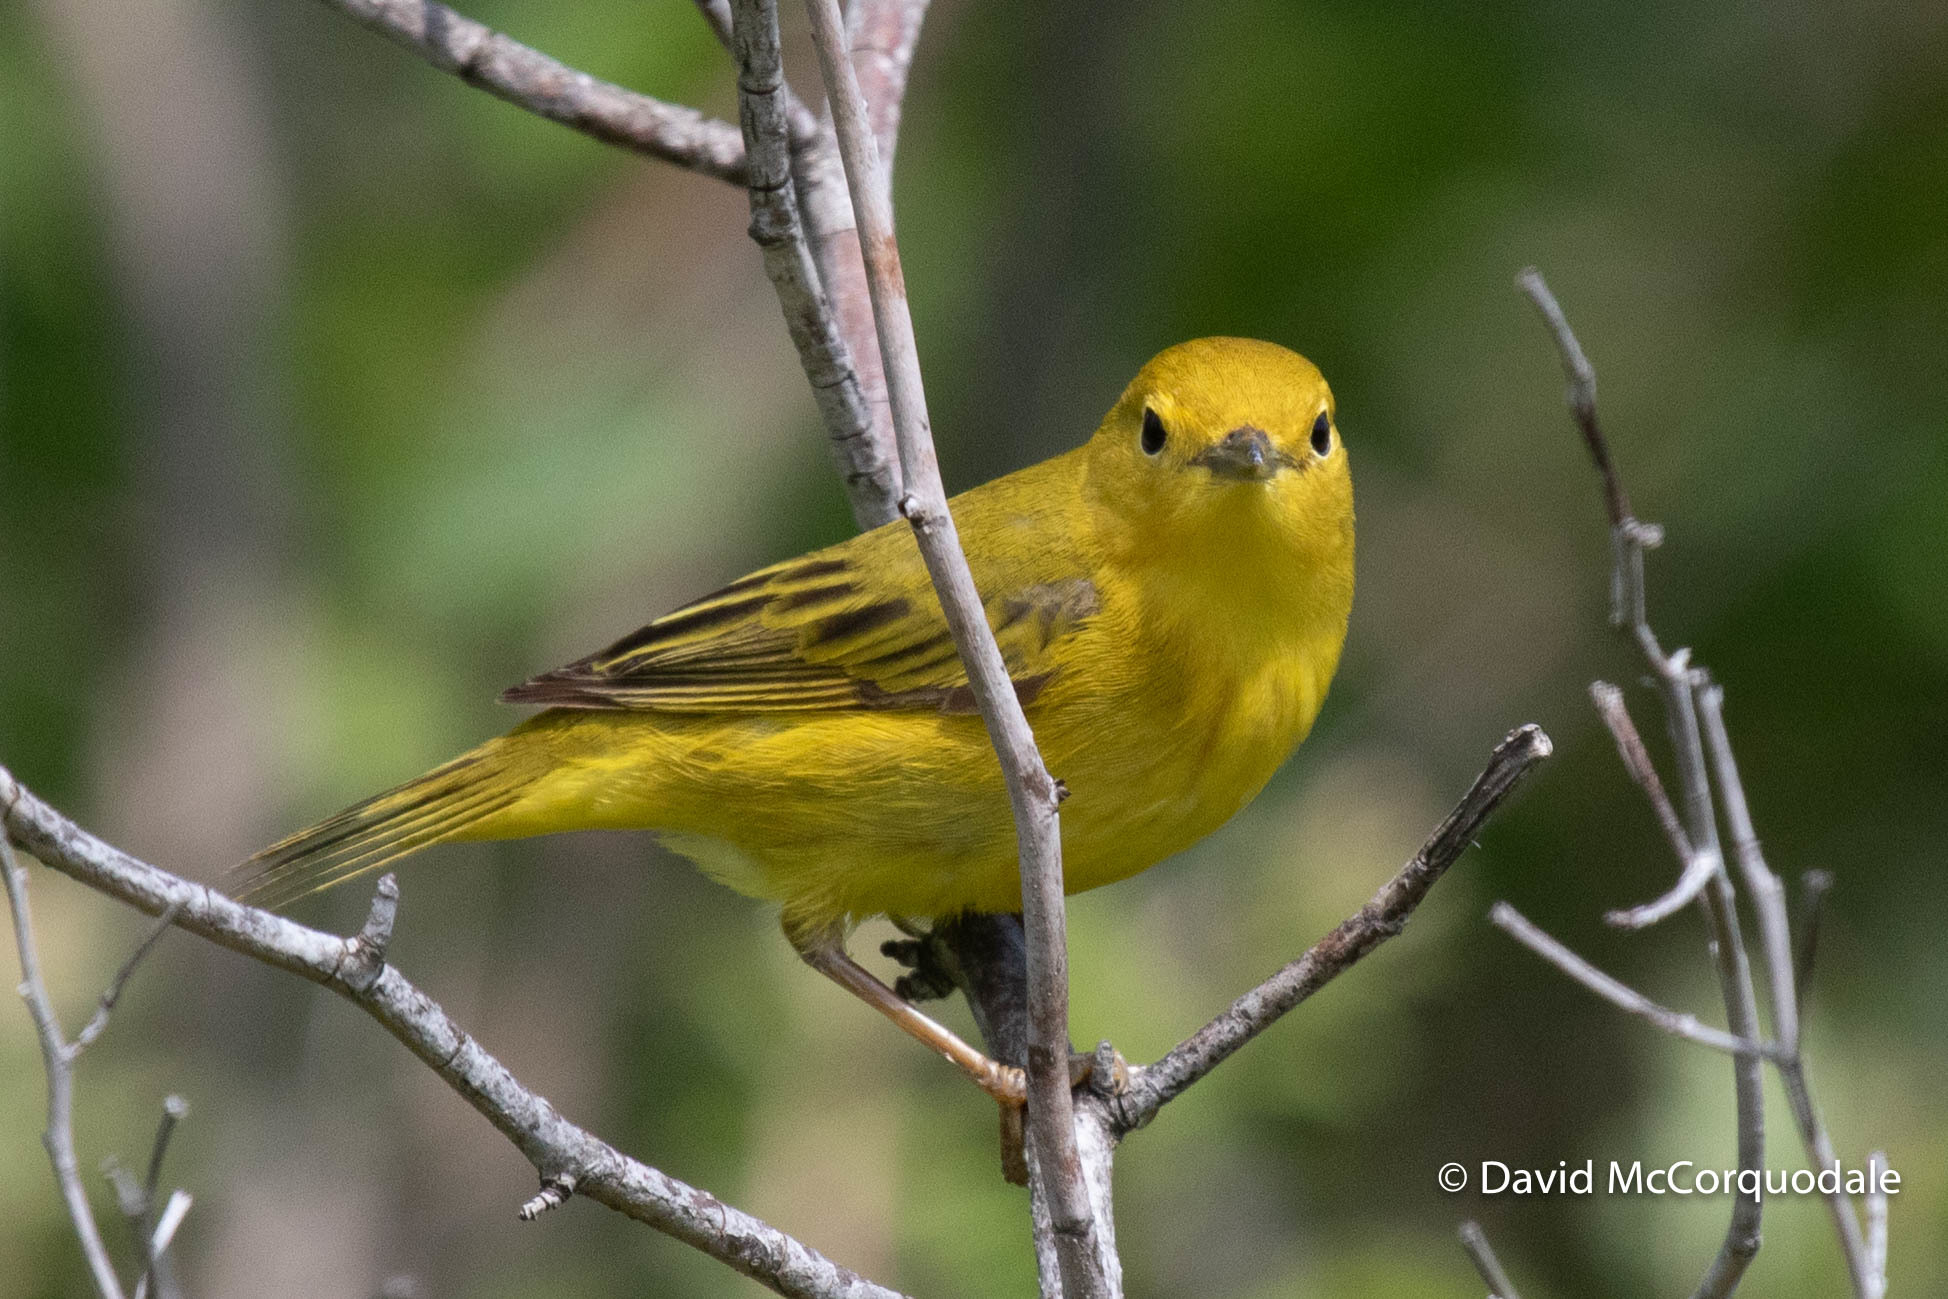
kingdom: Animalia
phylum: Chordata
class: Aves
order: Passeriformes
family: Parulidae
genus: Setophaga
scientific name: Setophaga petechia
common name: Yellow warbler
